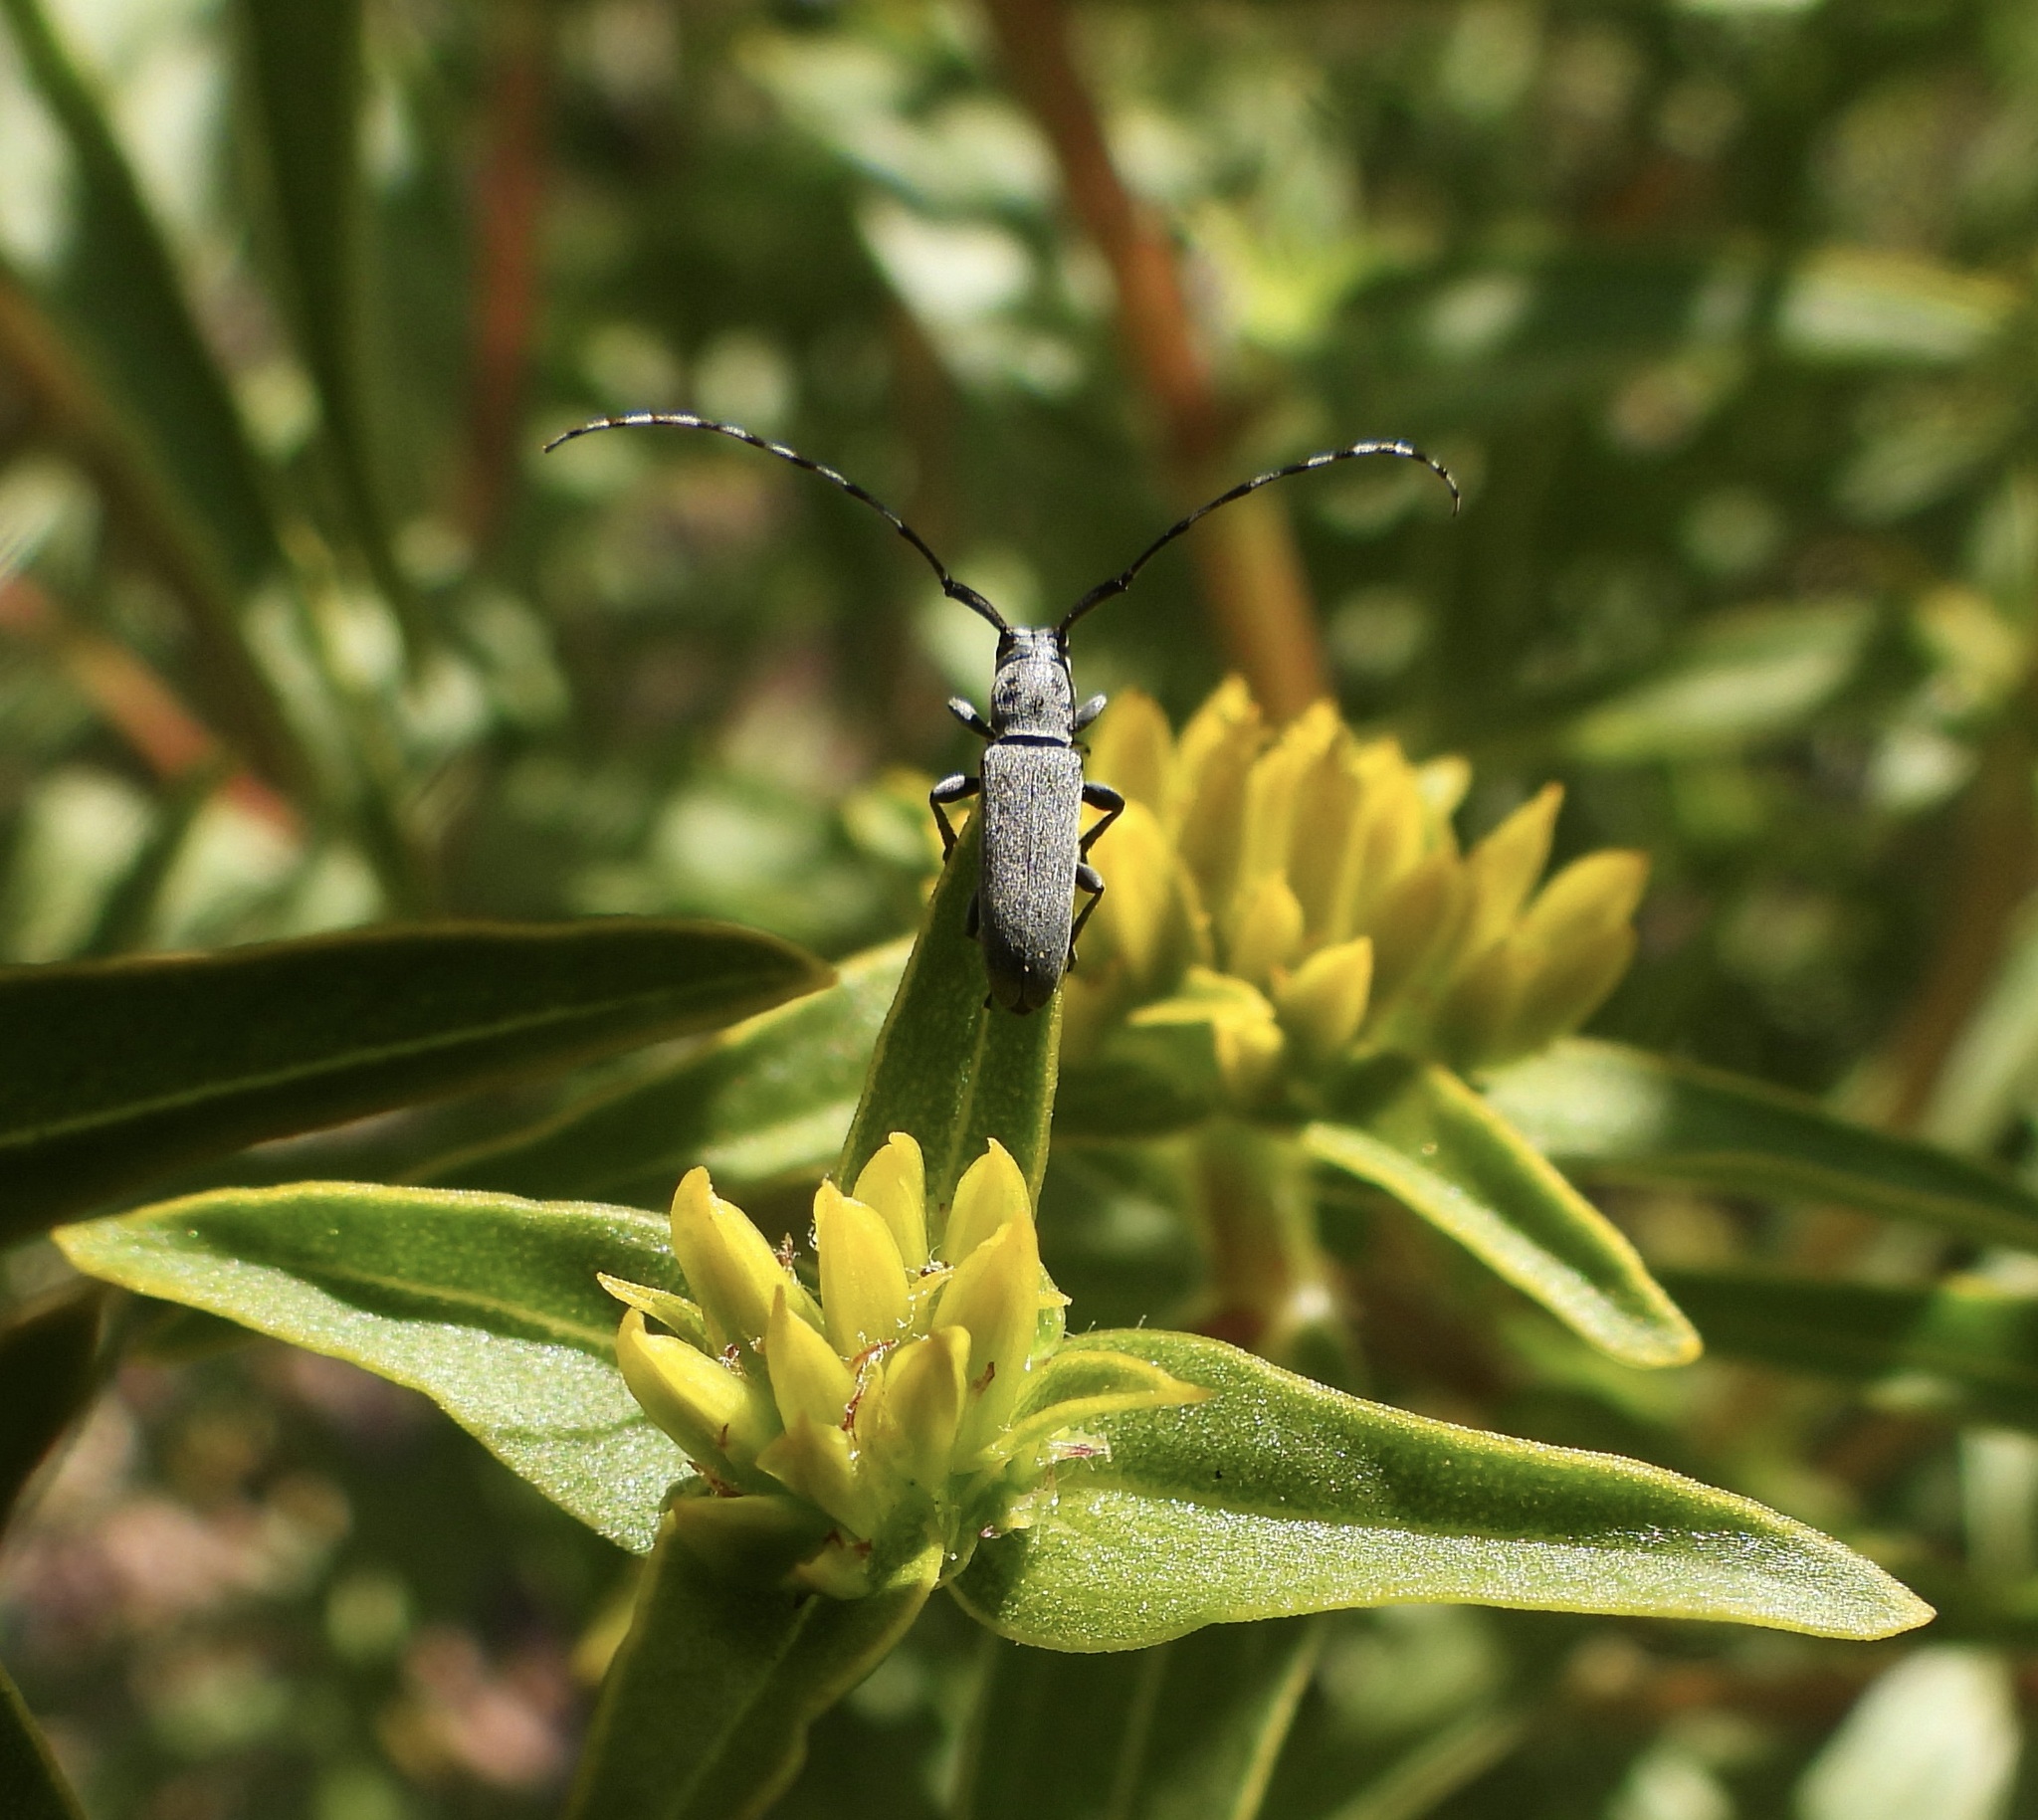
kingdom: Animalia
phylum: Arthropoda
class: Insecta
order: Coleoptera
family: Cerambycidae
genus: Dectes
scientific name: Dectes texanus
